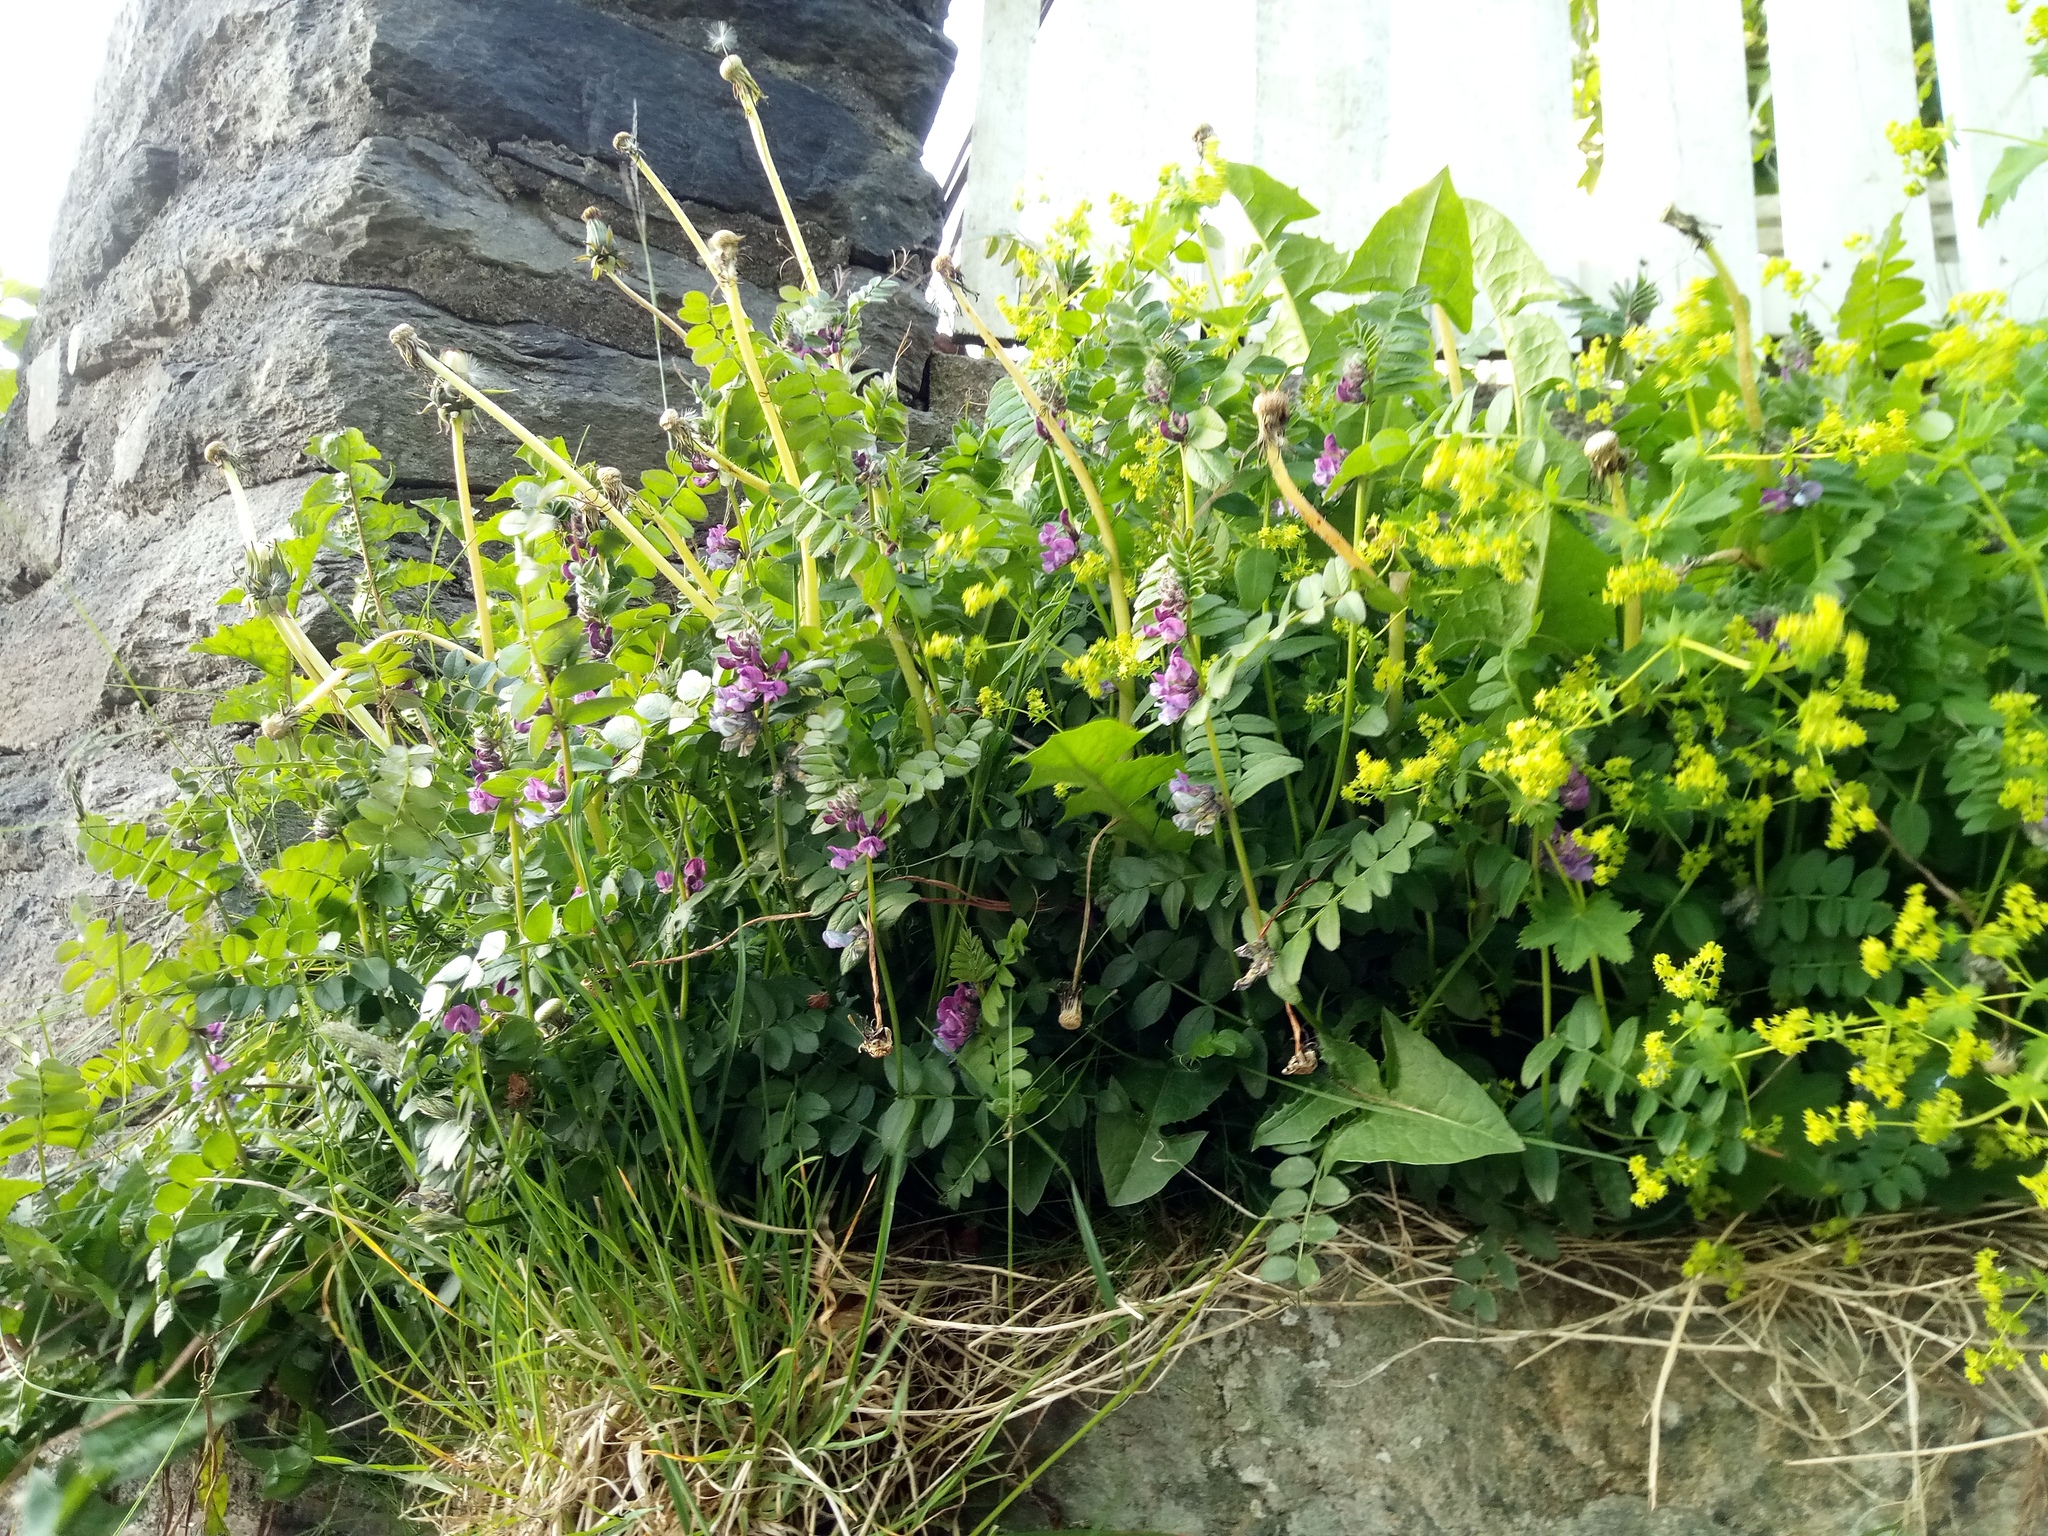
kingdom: Plantae
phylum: Tracheophyta
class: Magnoliopsida
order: Fabales
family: Fabaceae
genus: Vicia
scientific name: Vicia sepium
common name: Bush vetch
